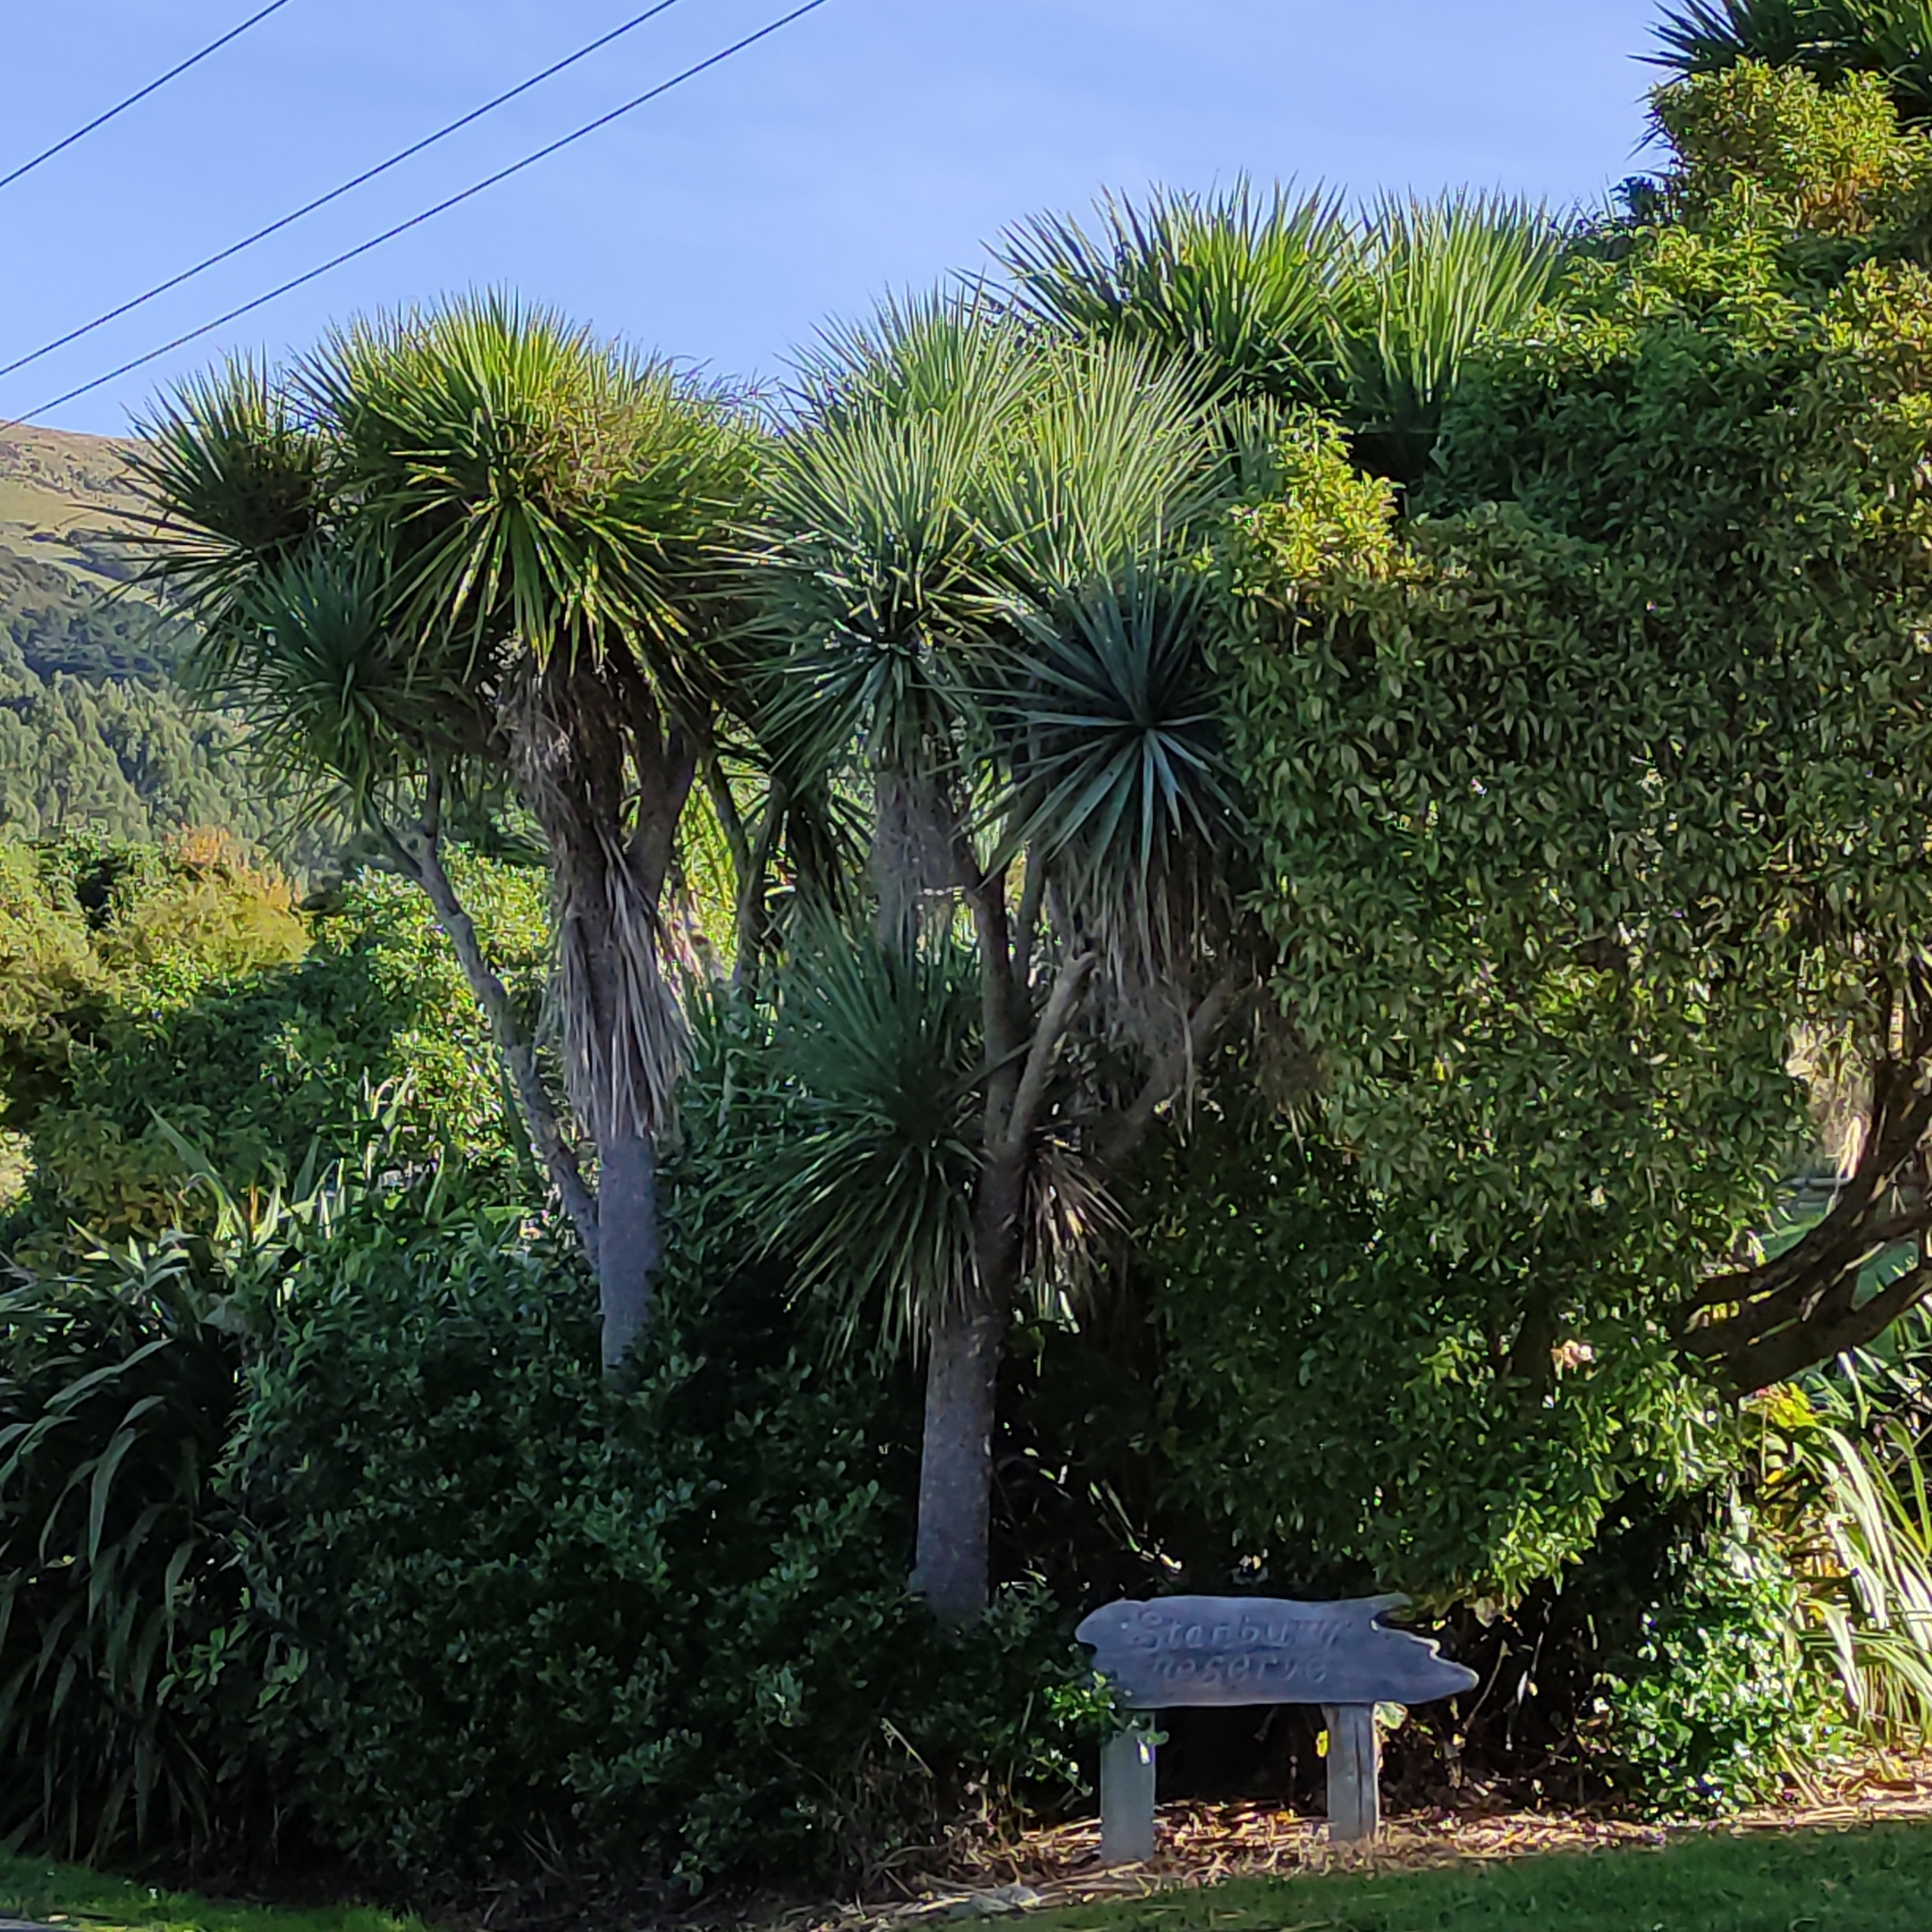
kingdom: Plantae
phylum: Tracheophyta
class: Liliopsida
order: Asparagales
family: Asparagaceae
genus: Cordyline
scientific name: Cordyline australis
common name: Cabbage-palm
